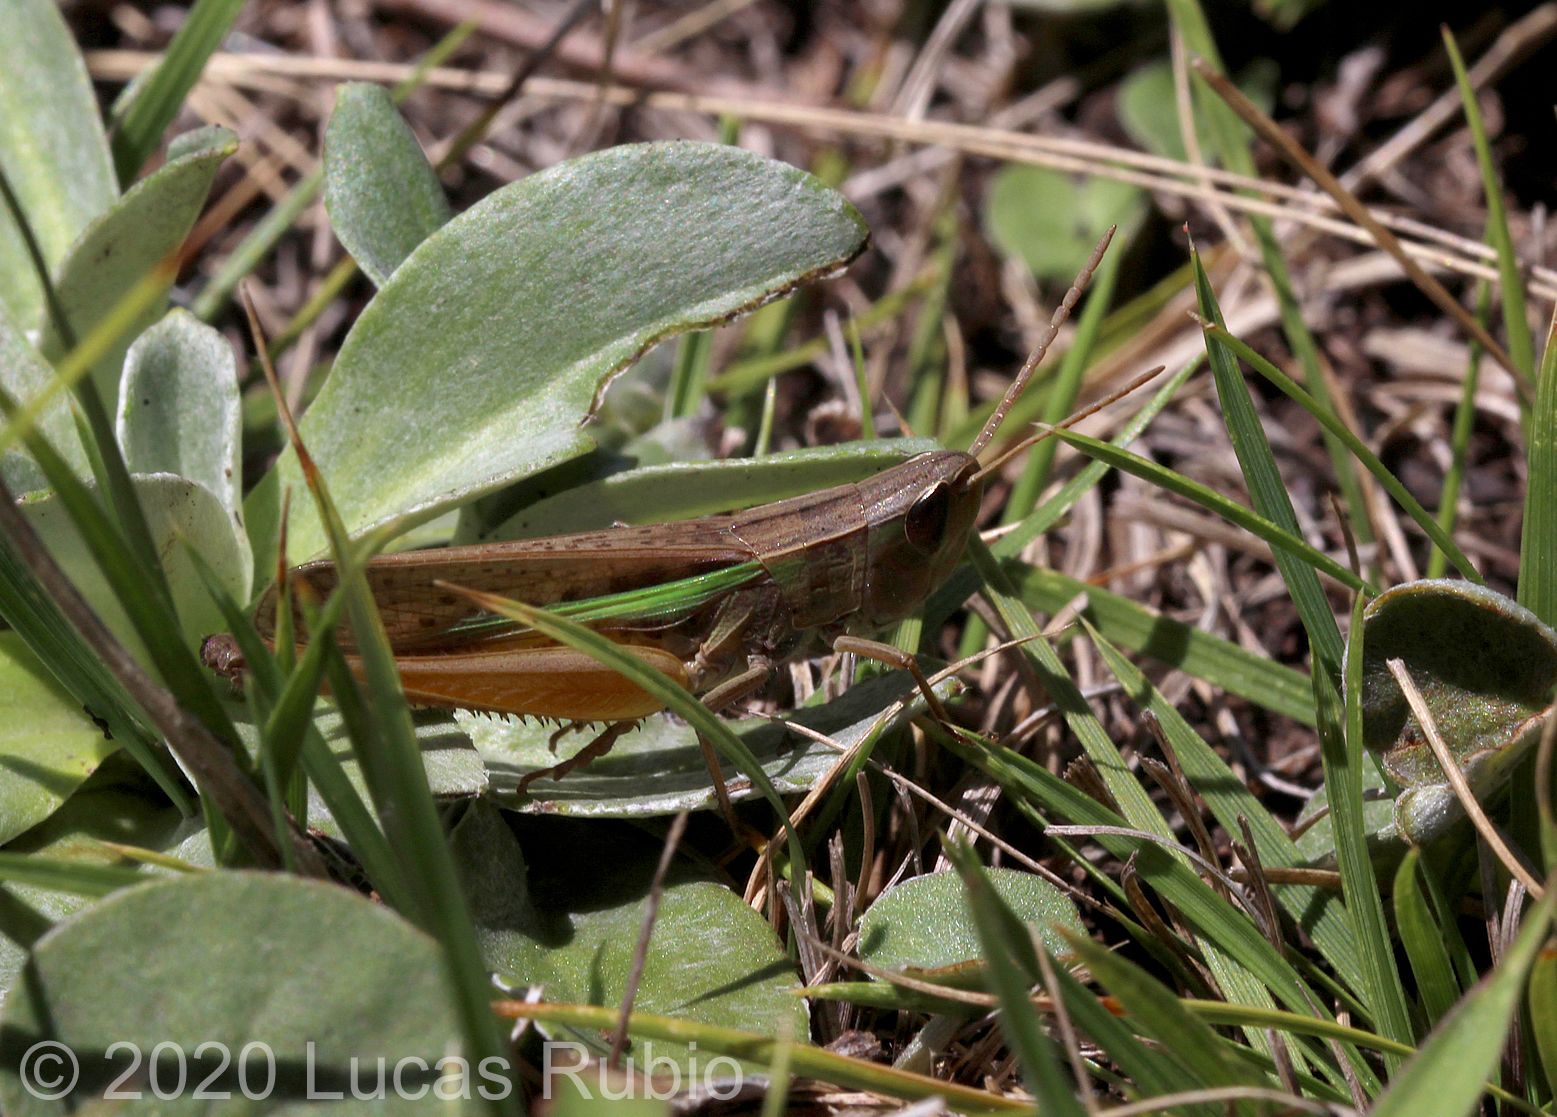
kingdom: Animalia
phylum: Arthropoda
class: Insecta
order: Orthoptera
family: Acrididae
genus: Cocytotettix
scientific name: Cocytotettix argentina
